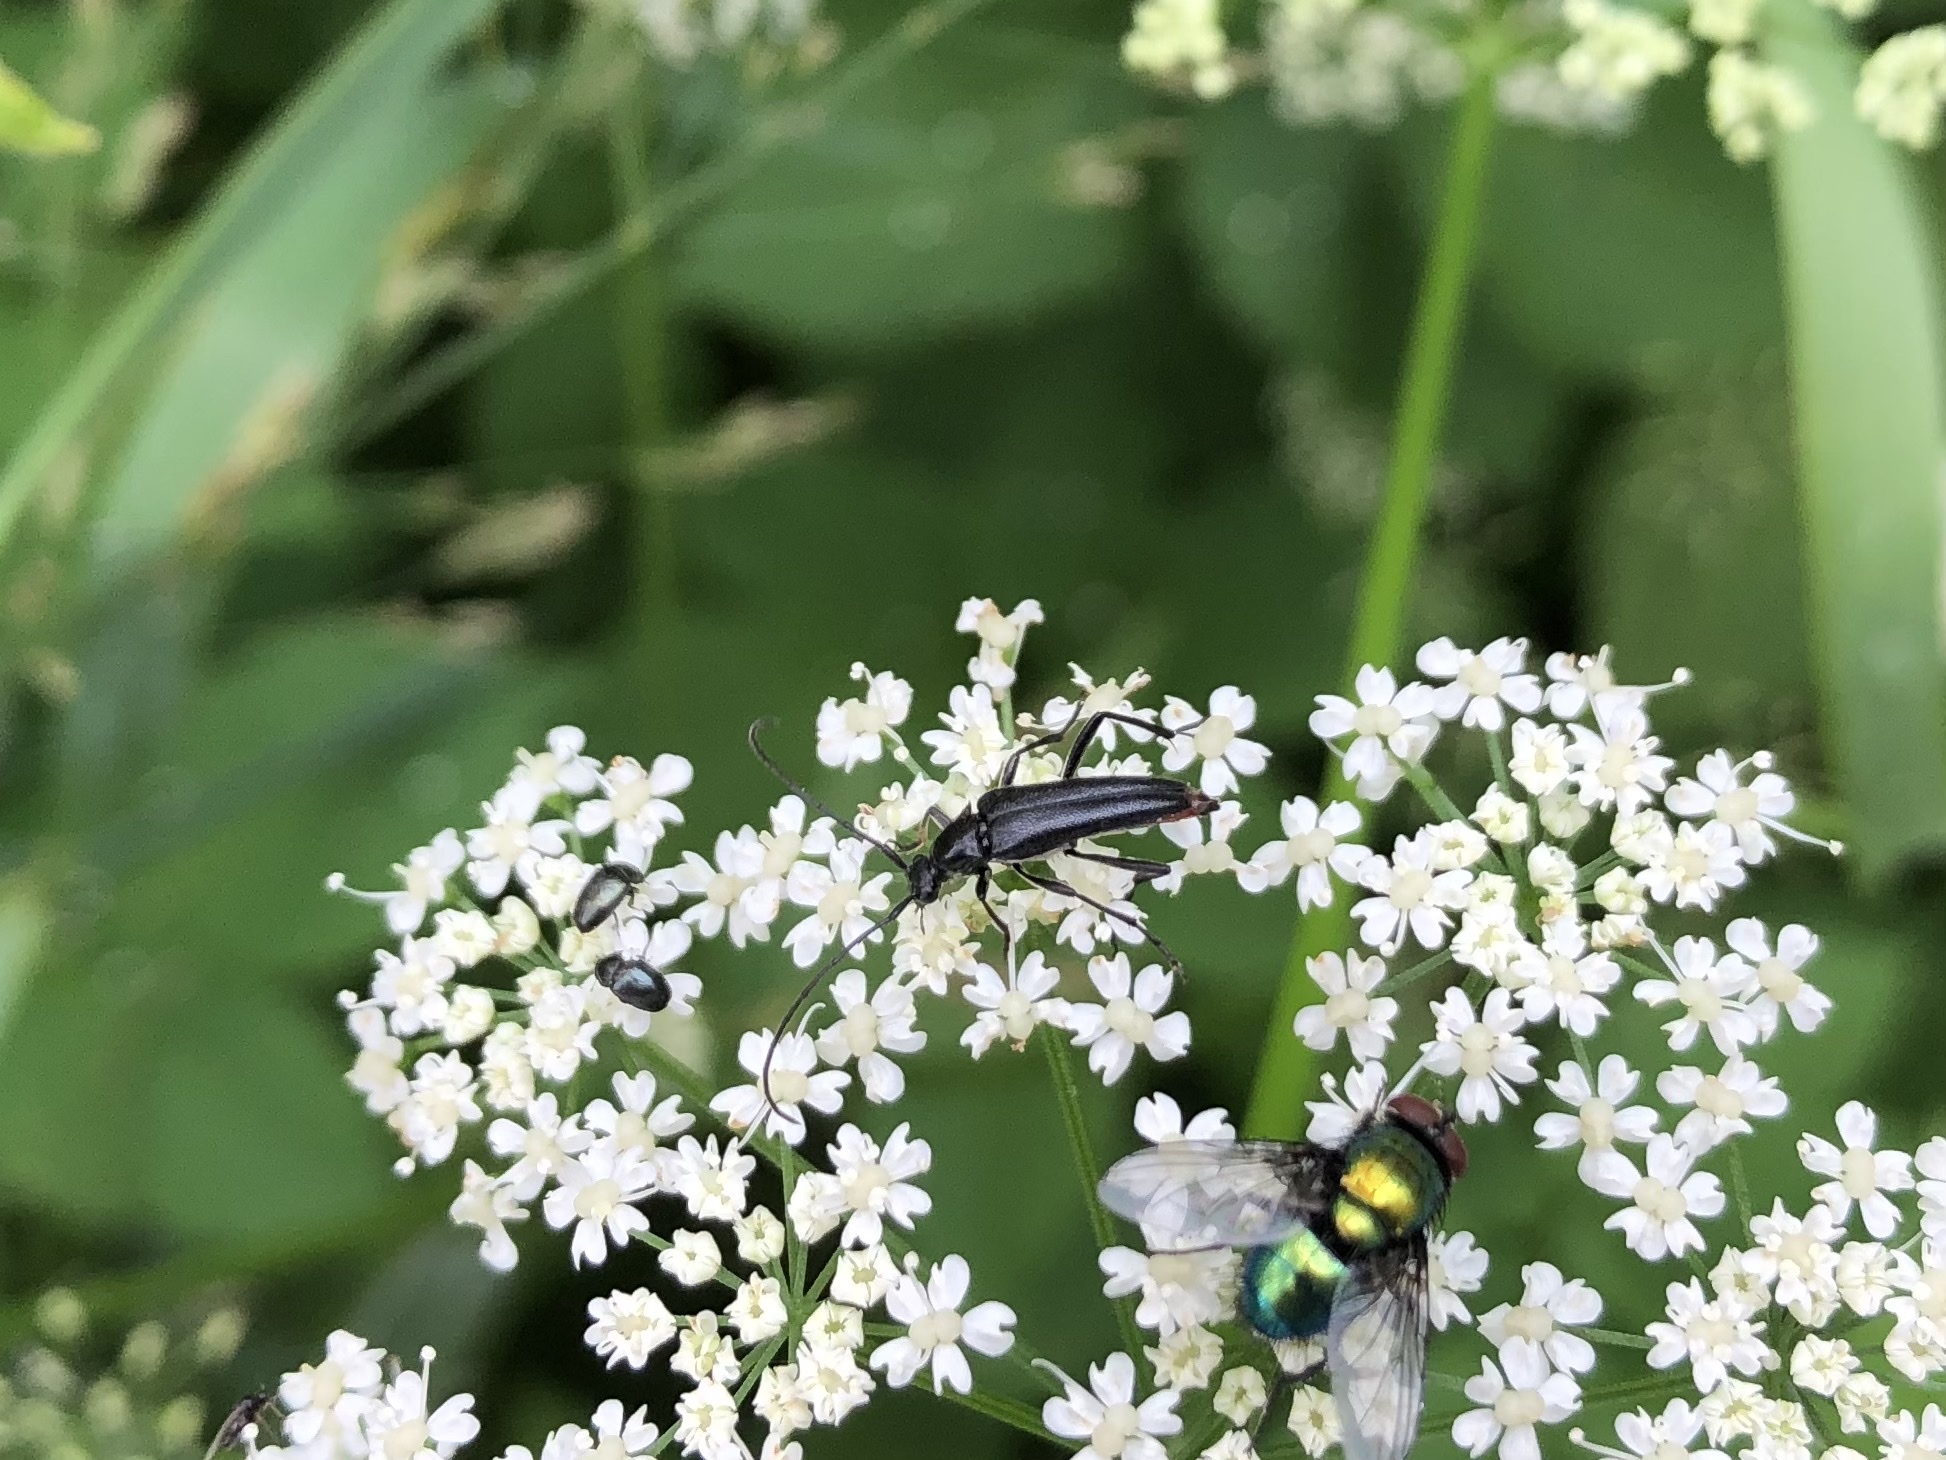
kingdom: Animalia
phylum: Arthropoda
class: Insecta
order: Coleoptera
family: Cerambycidae
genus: Stenurella
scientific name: Stenurella nigra
